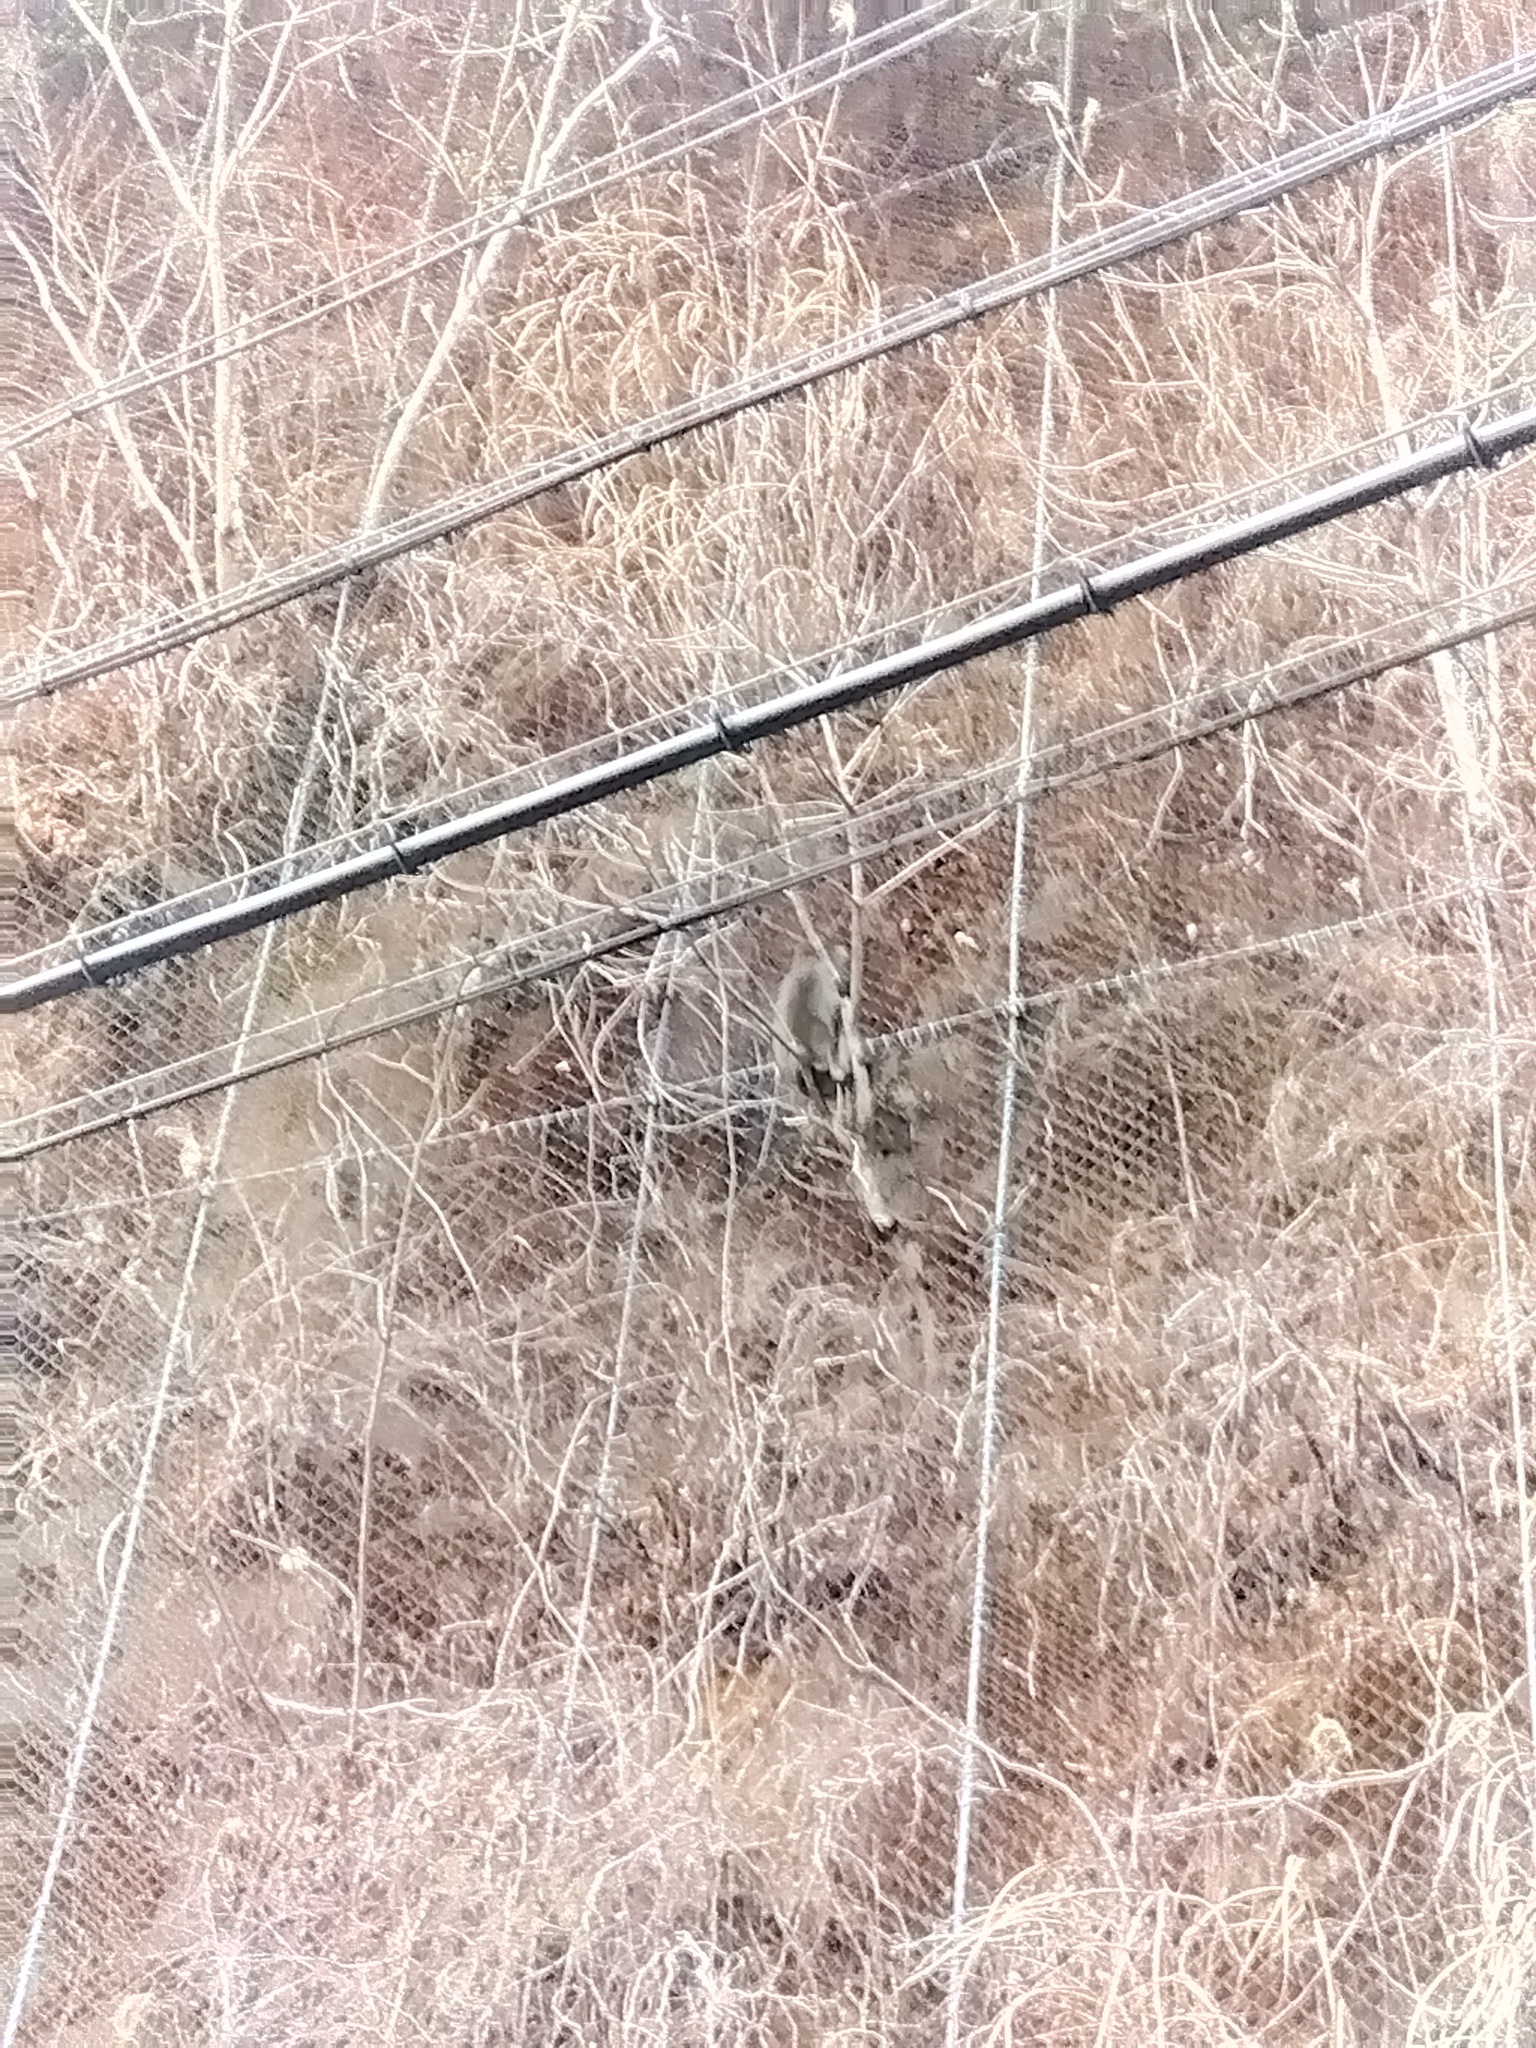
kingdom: Animalia
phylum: Chordata
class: Mammalia
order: Primates
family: Cercopithecidae
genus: Macaca
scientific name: Macaca fuscata
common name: Japanese macaque
